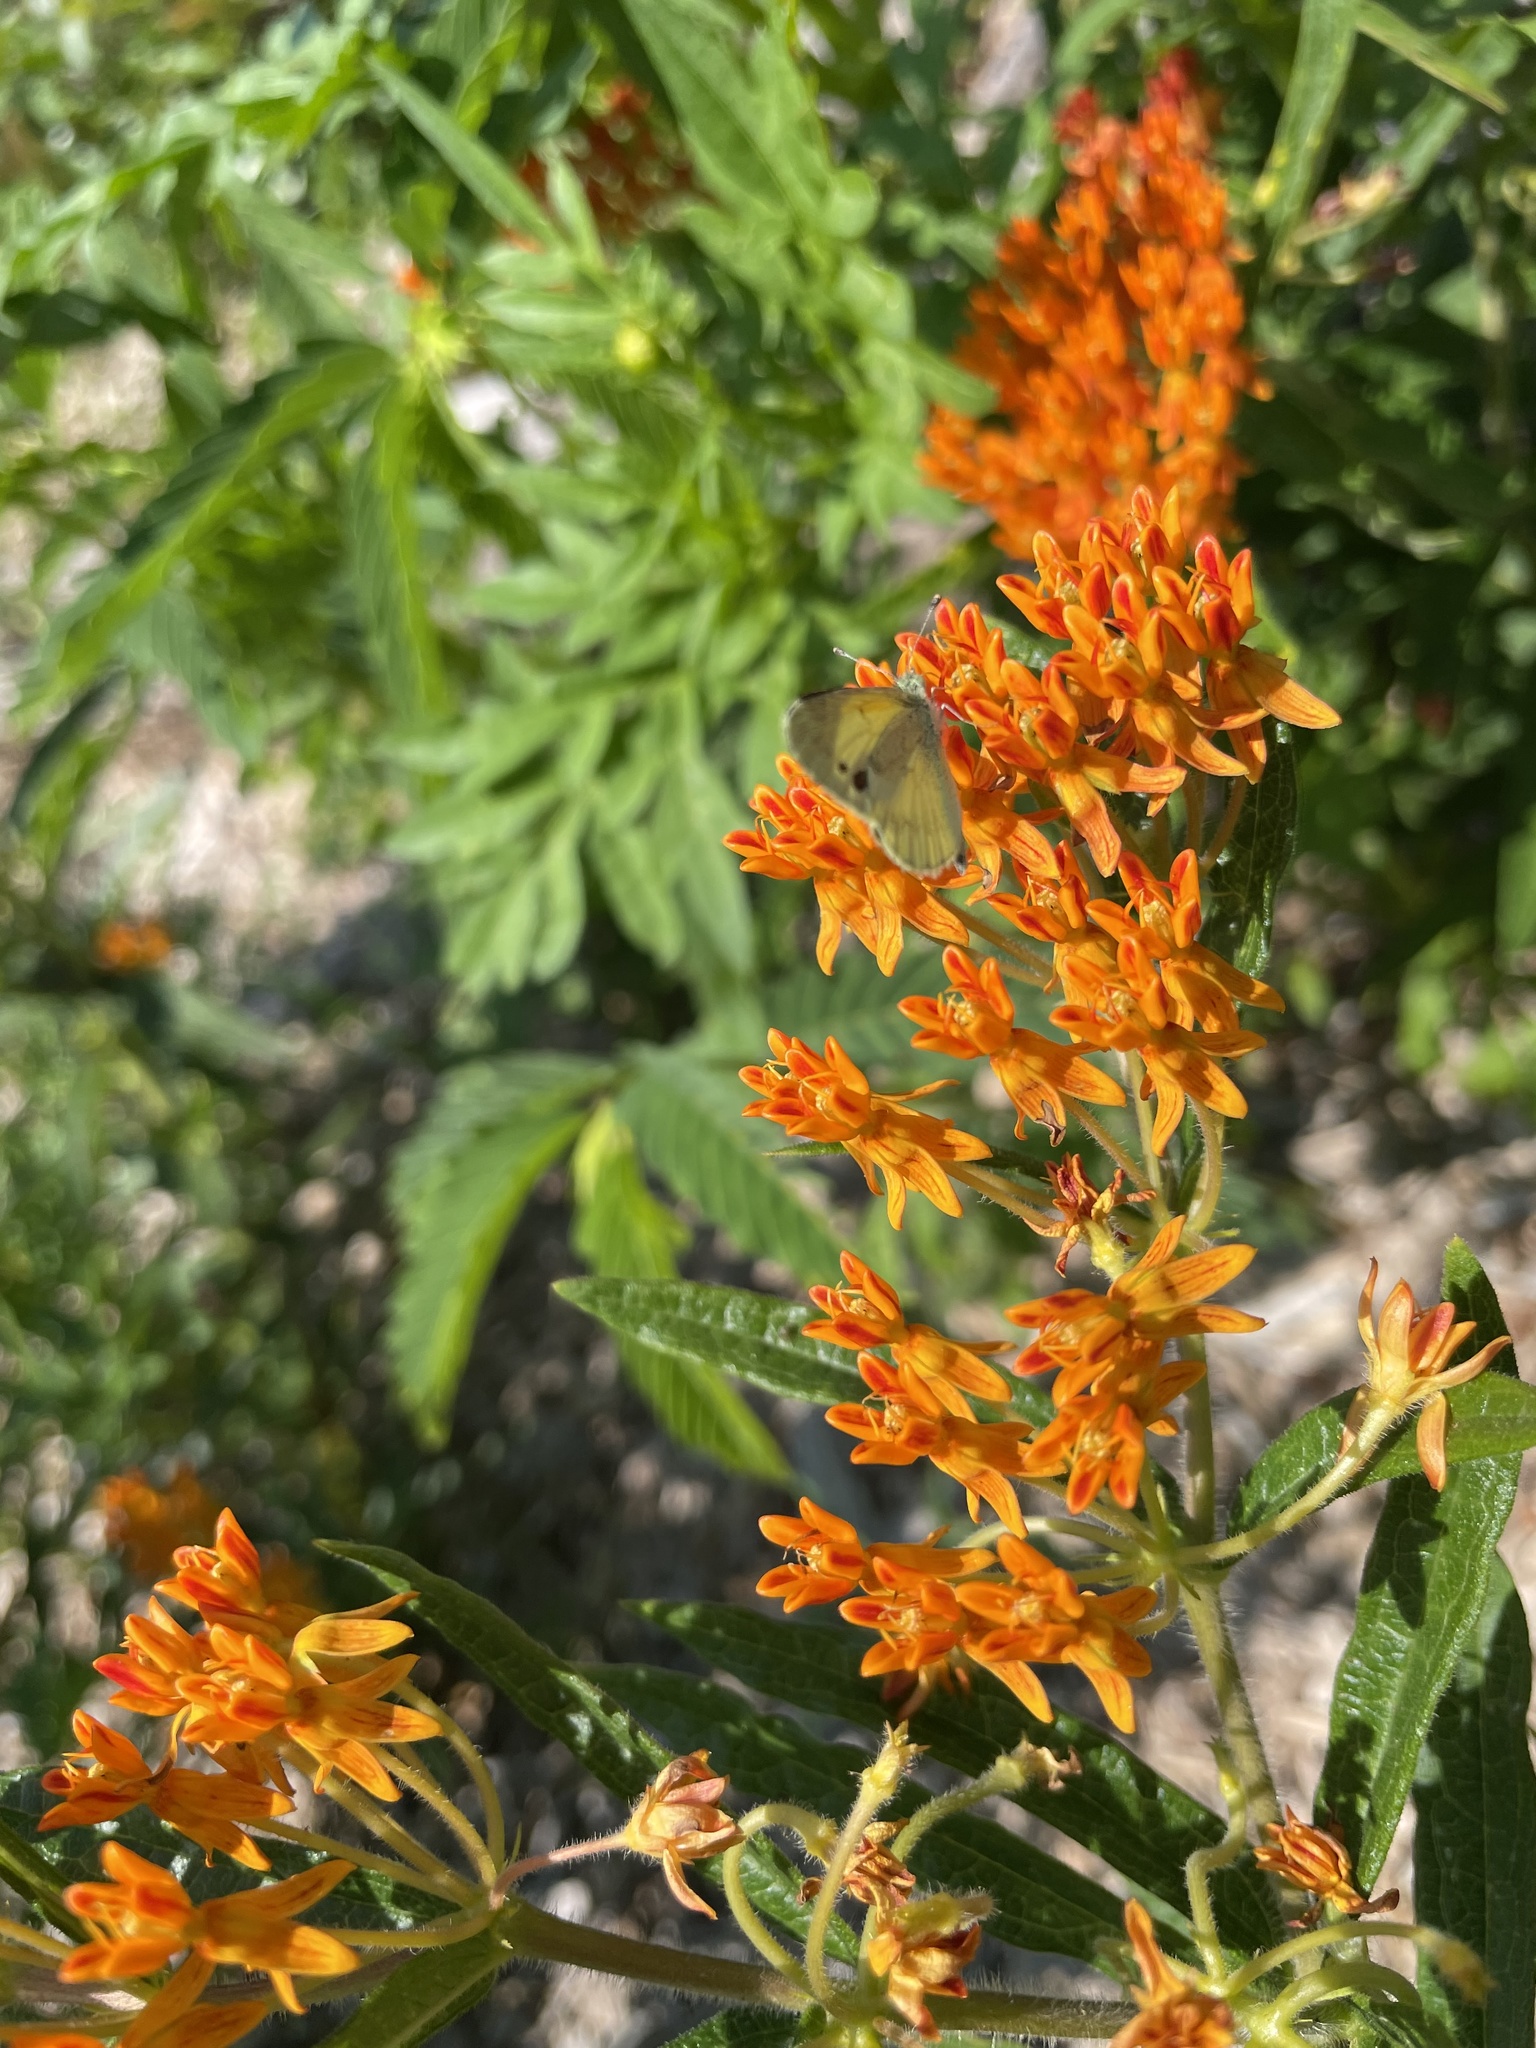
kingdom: Animalia
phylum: Arthropoda
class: Insecta
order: Lepidoptera
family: Pieridae
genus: Nathalis
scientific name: Nathalis iole
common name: Dainty sulphur
